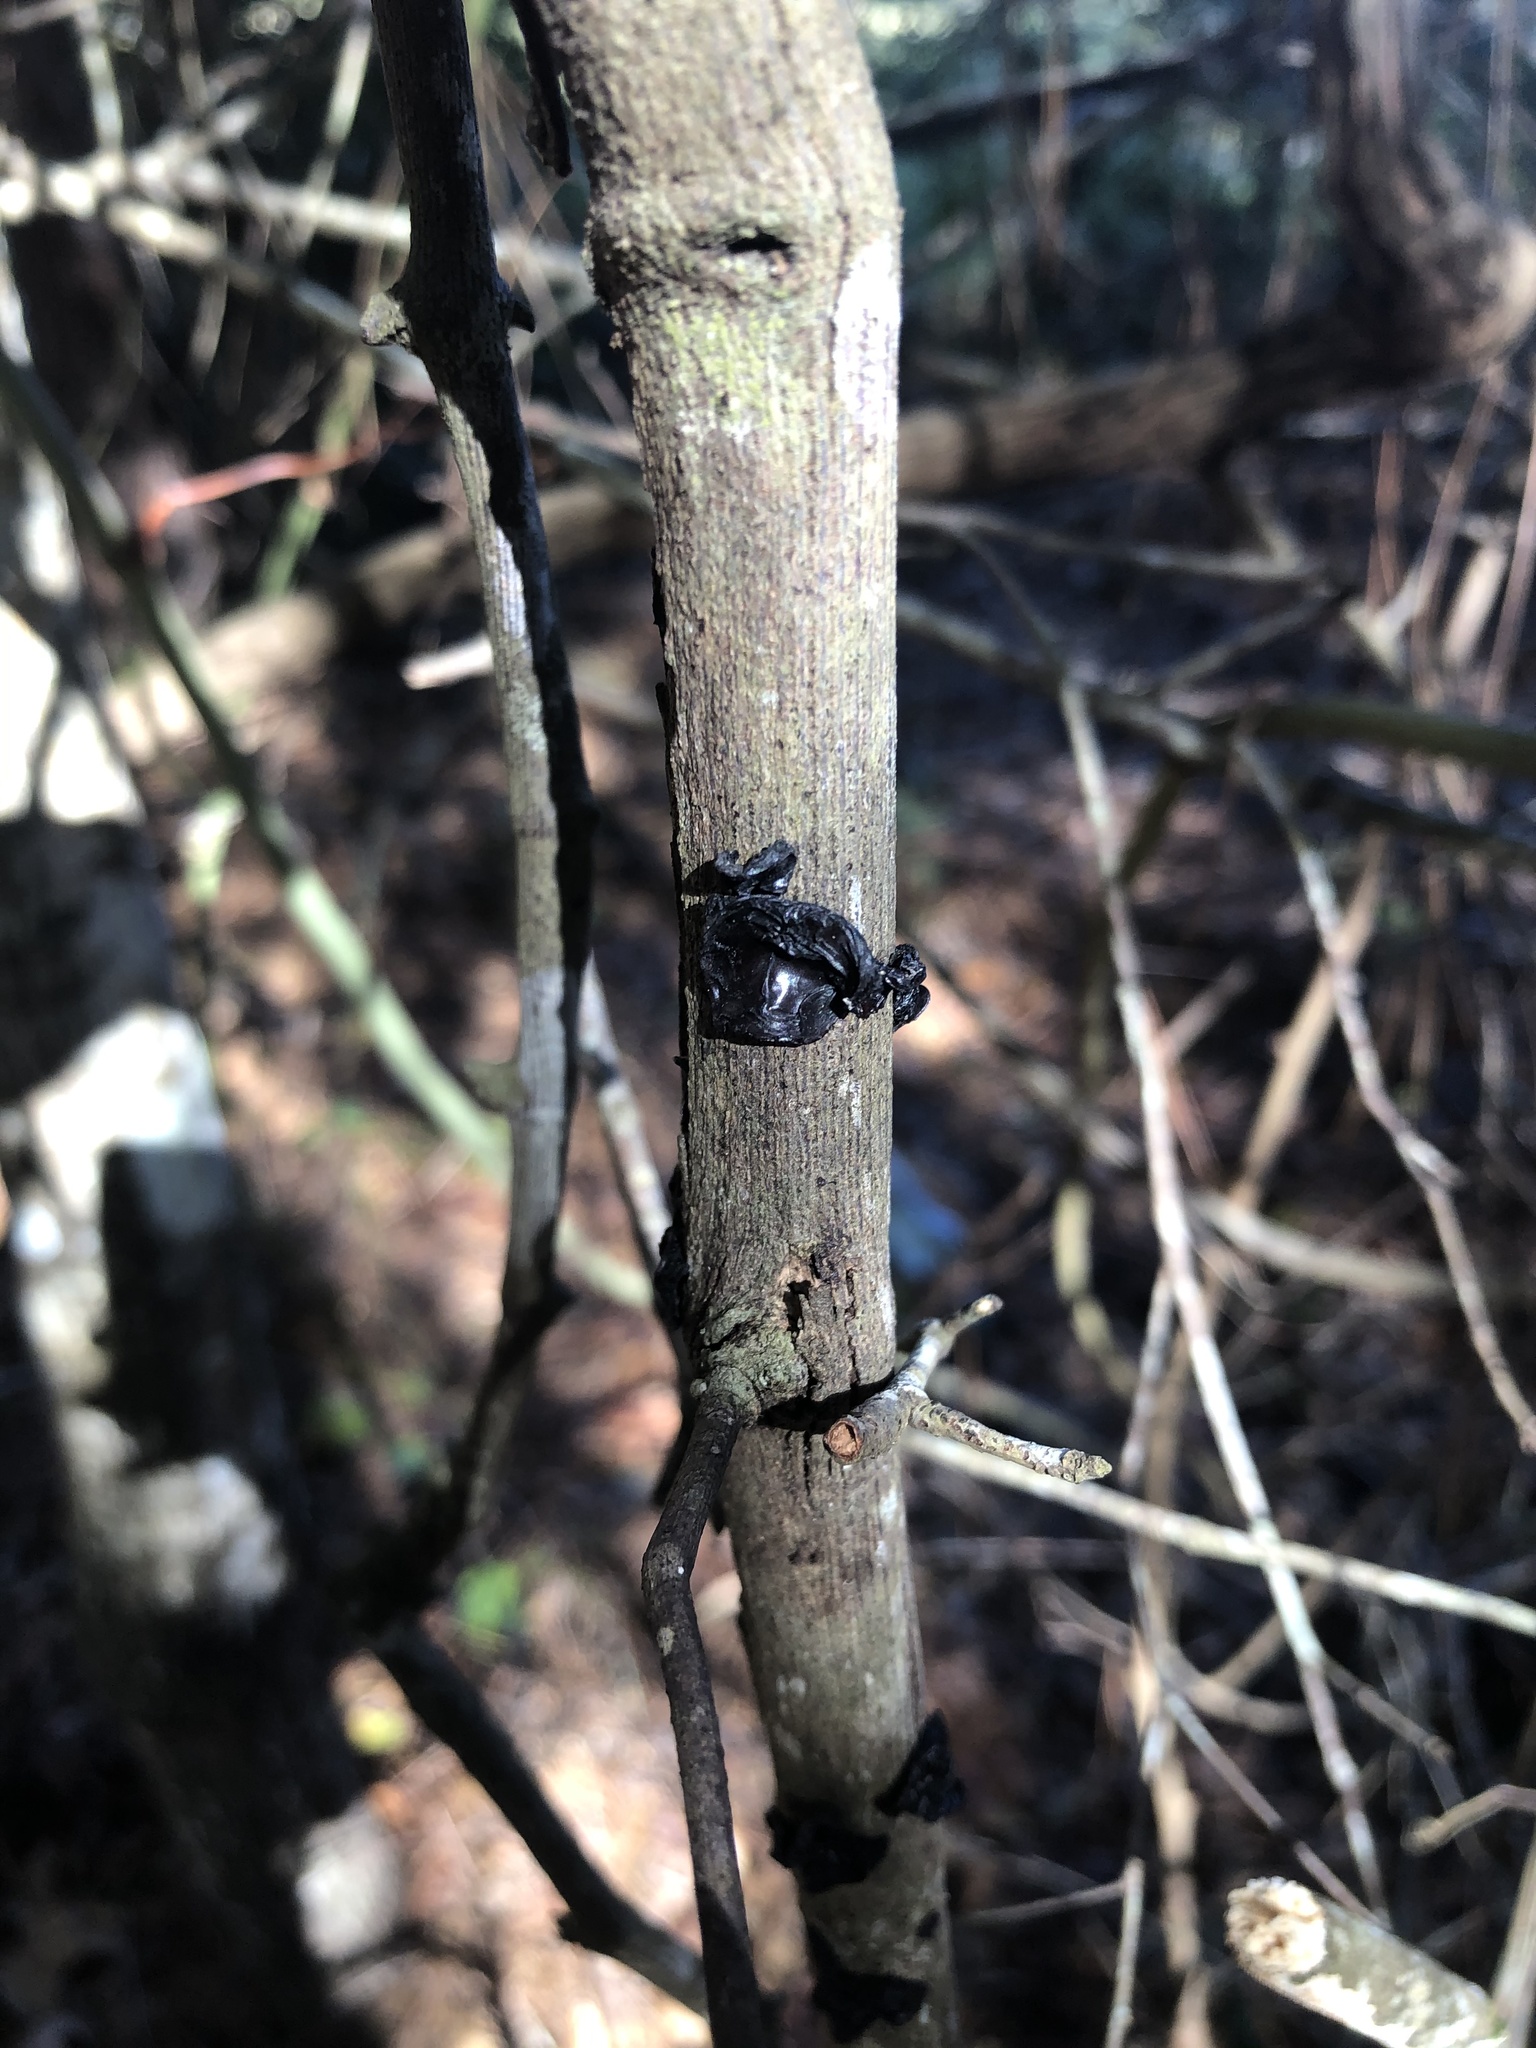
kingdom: Fungi
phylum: Basidiomycota
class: Agaricomycetes
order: Auriculariales
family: Auriculariaceae
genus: Exidia
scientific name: Exidia glandulosa
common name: Witches' butter
